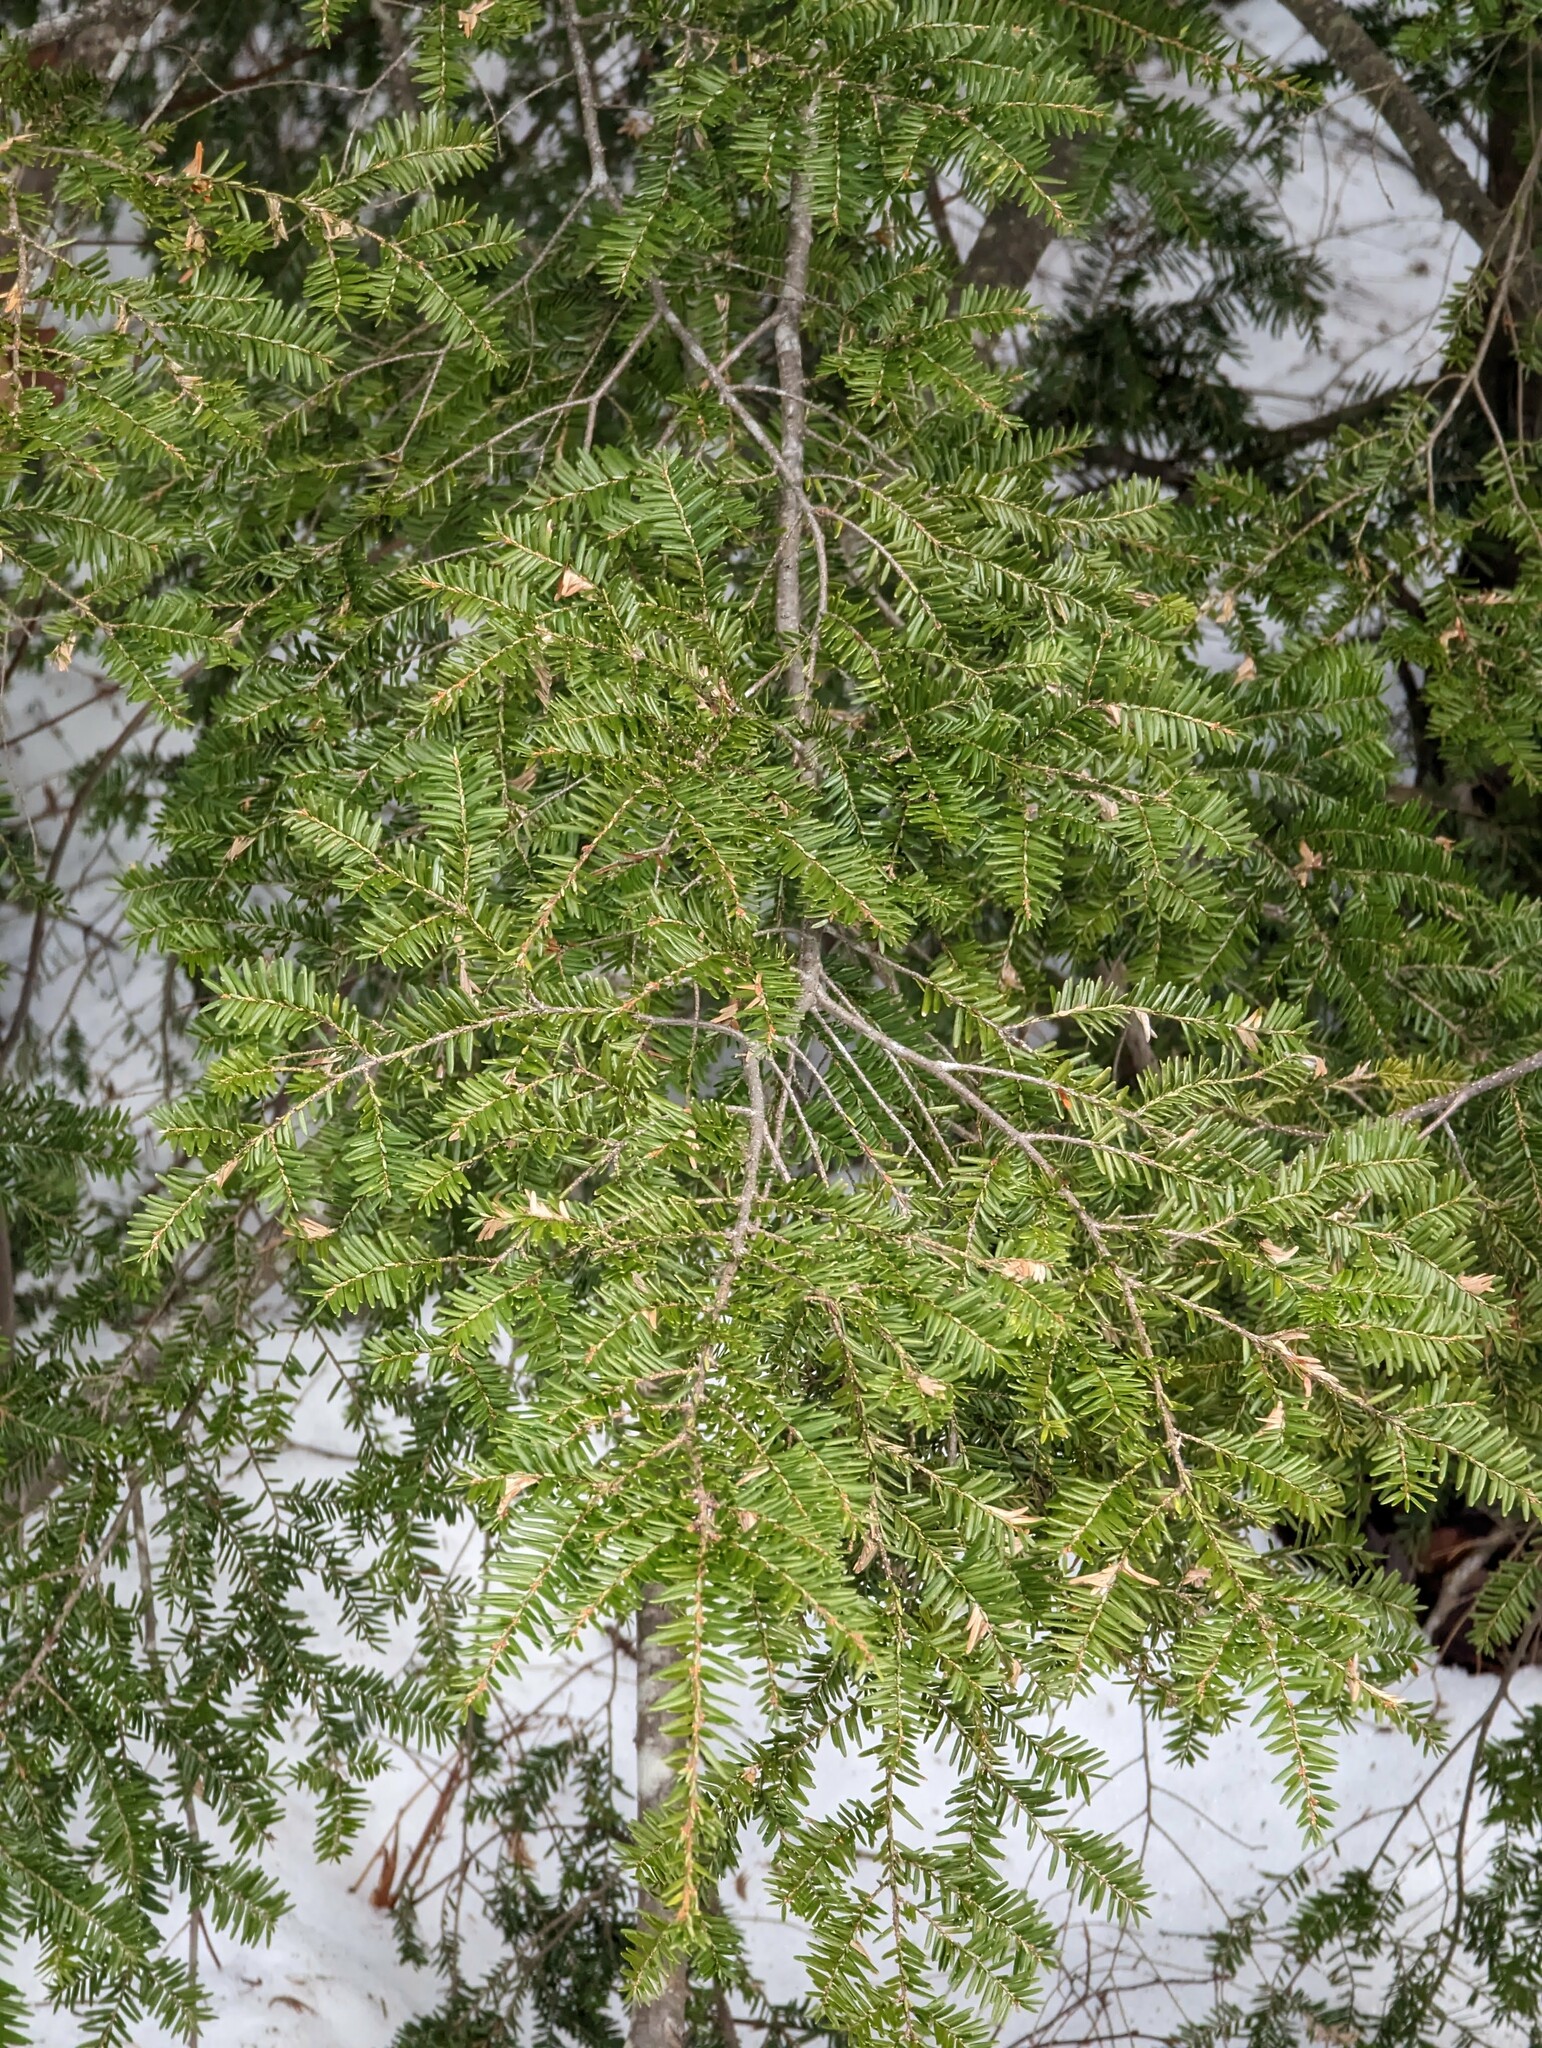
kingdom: Plantae
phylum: Tracheophyta
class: Pinopsida
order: Pinales
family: Pinaceae
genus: Tsuga
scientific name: Tsuga canadensis
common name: Eastern hemlock
